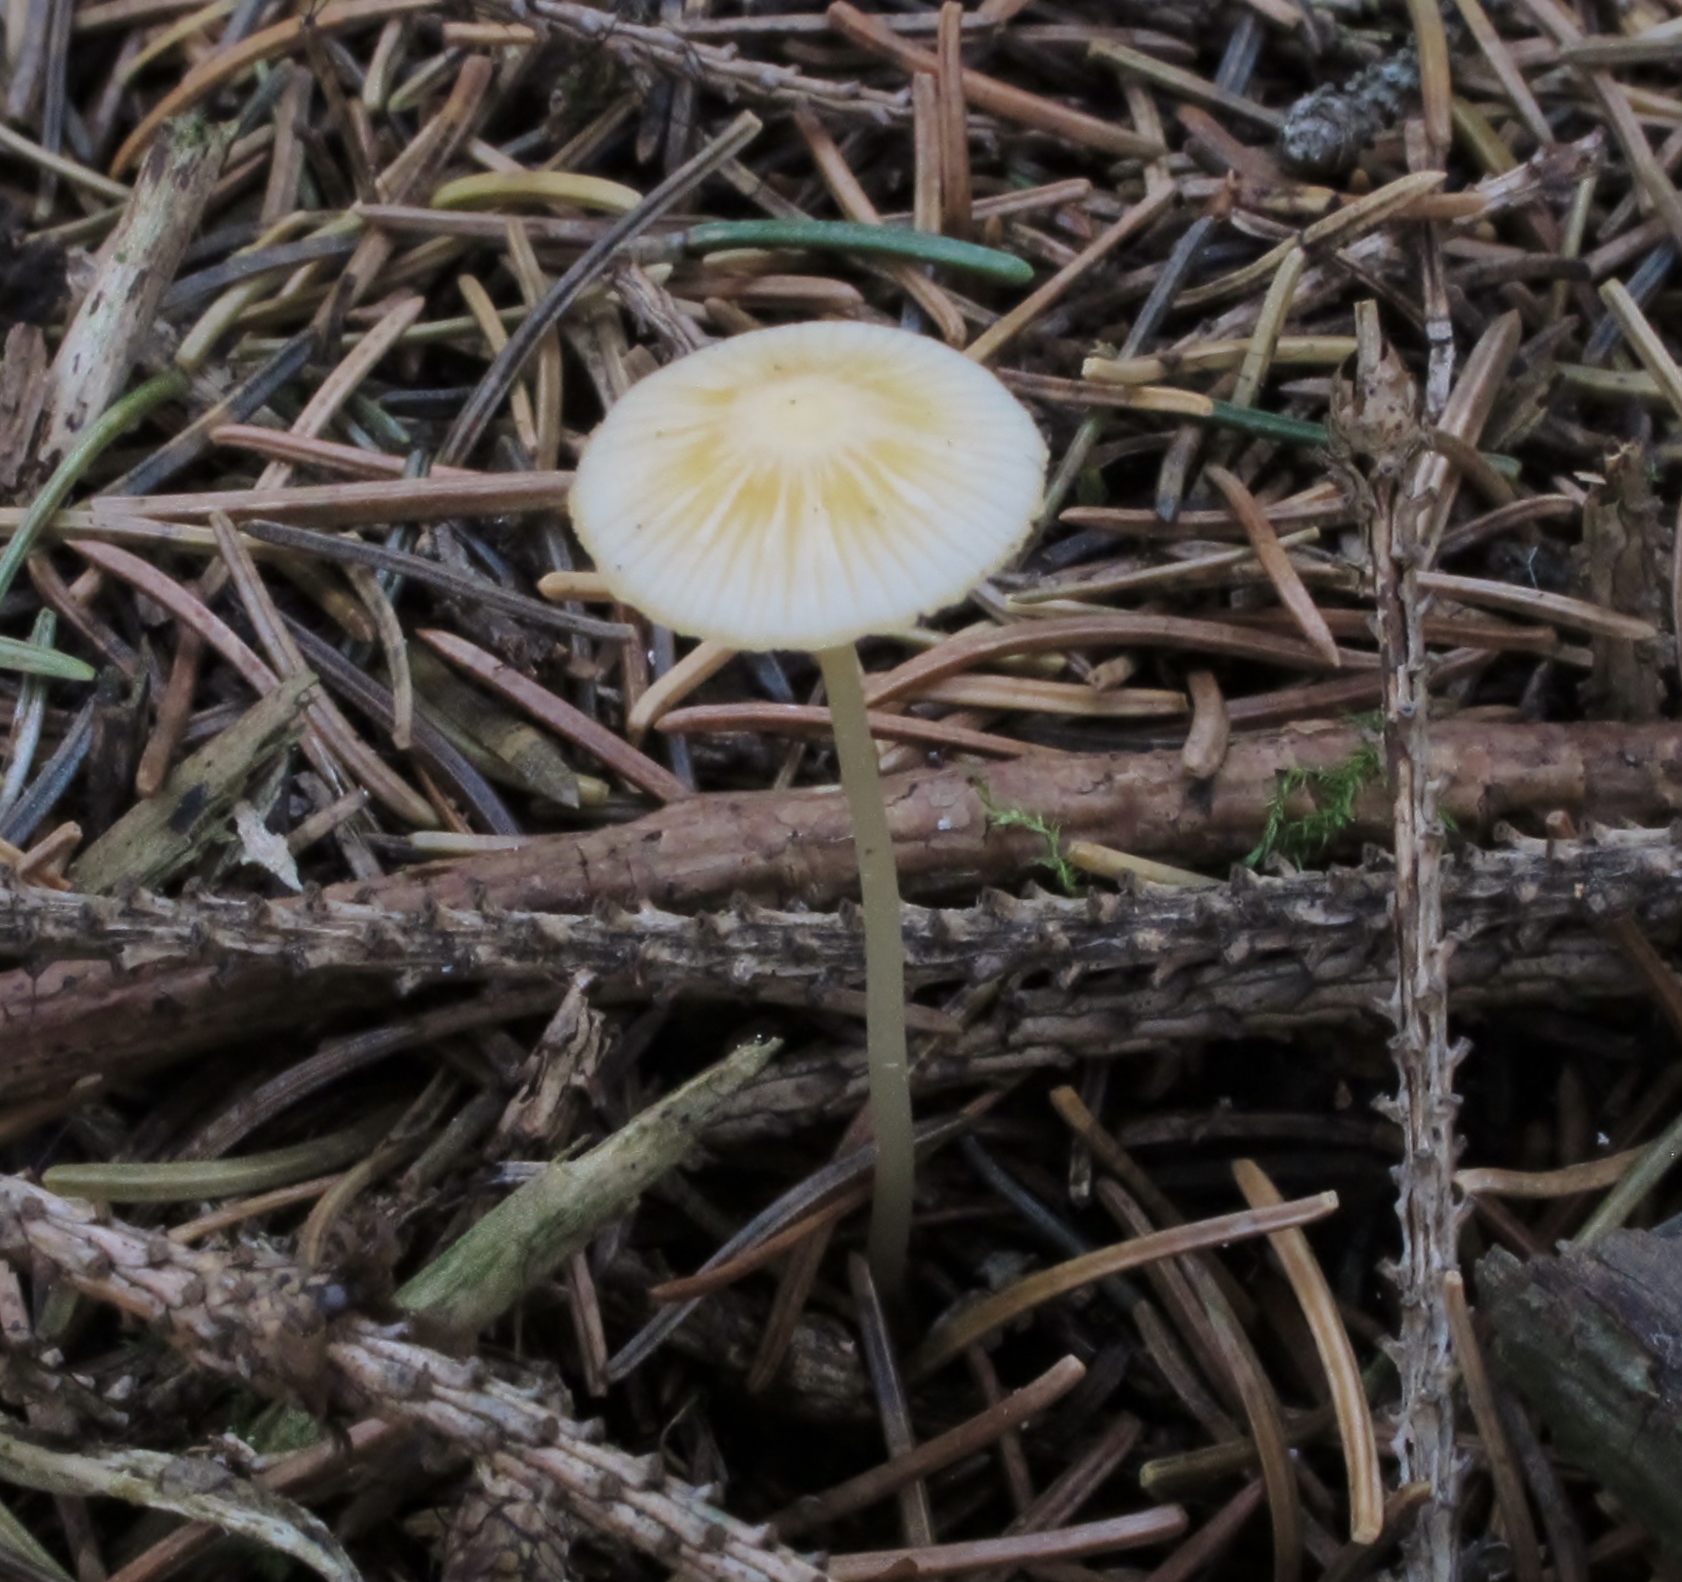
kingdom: Fungi
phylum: Basidiomycota
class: Agaricomycetes
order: Agaricales
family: Mycenaceae
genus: Mycena
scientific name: Mycena crocea
